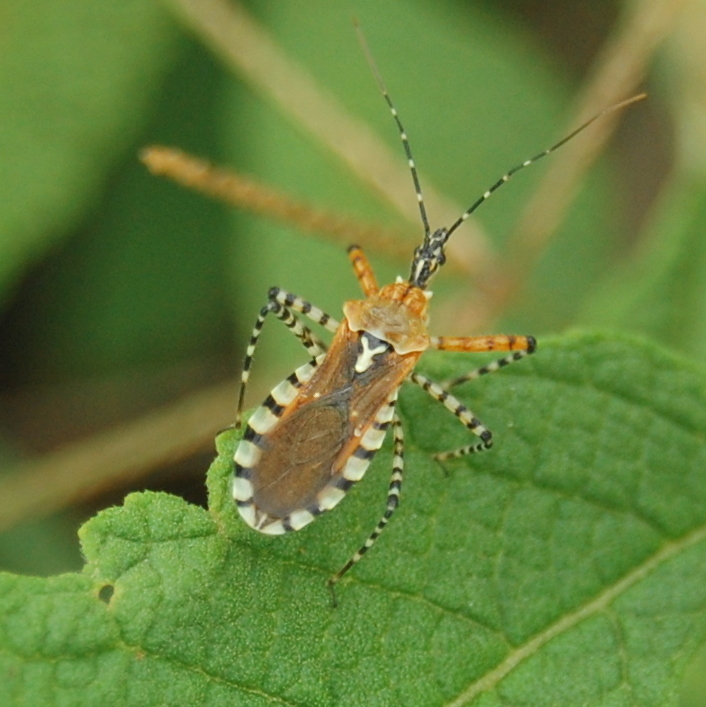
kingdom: Animalia
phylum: Arthropoda
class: Insecta
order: Hemiptera
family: Reduviidae
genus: Cosmoclopius
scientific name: Cosmoclopius nigroannulatus
